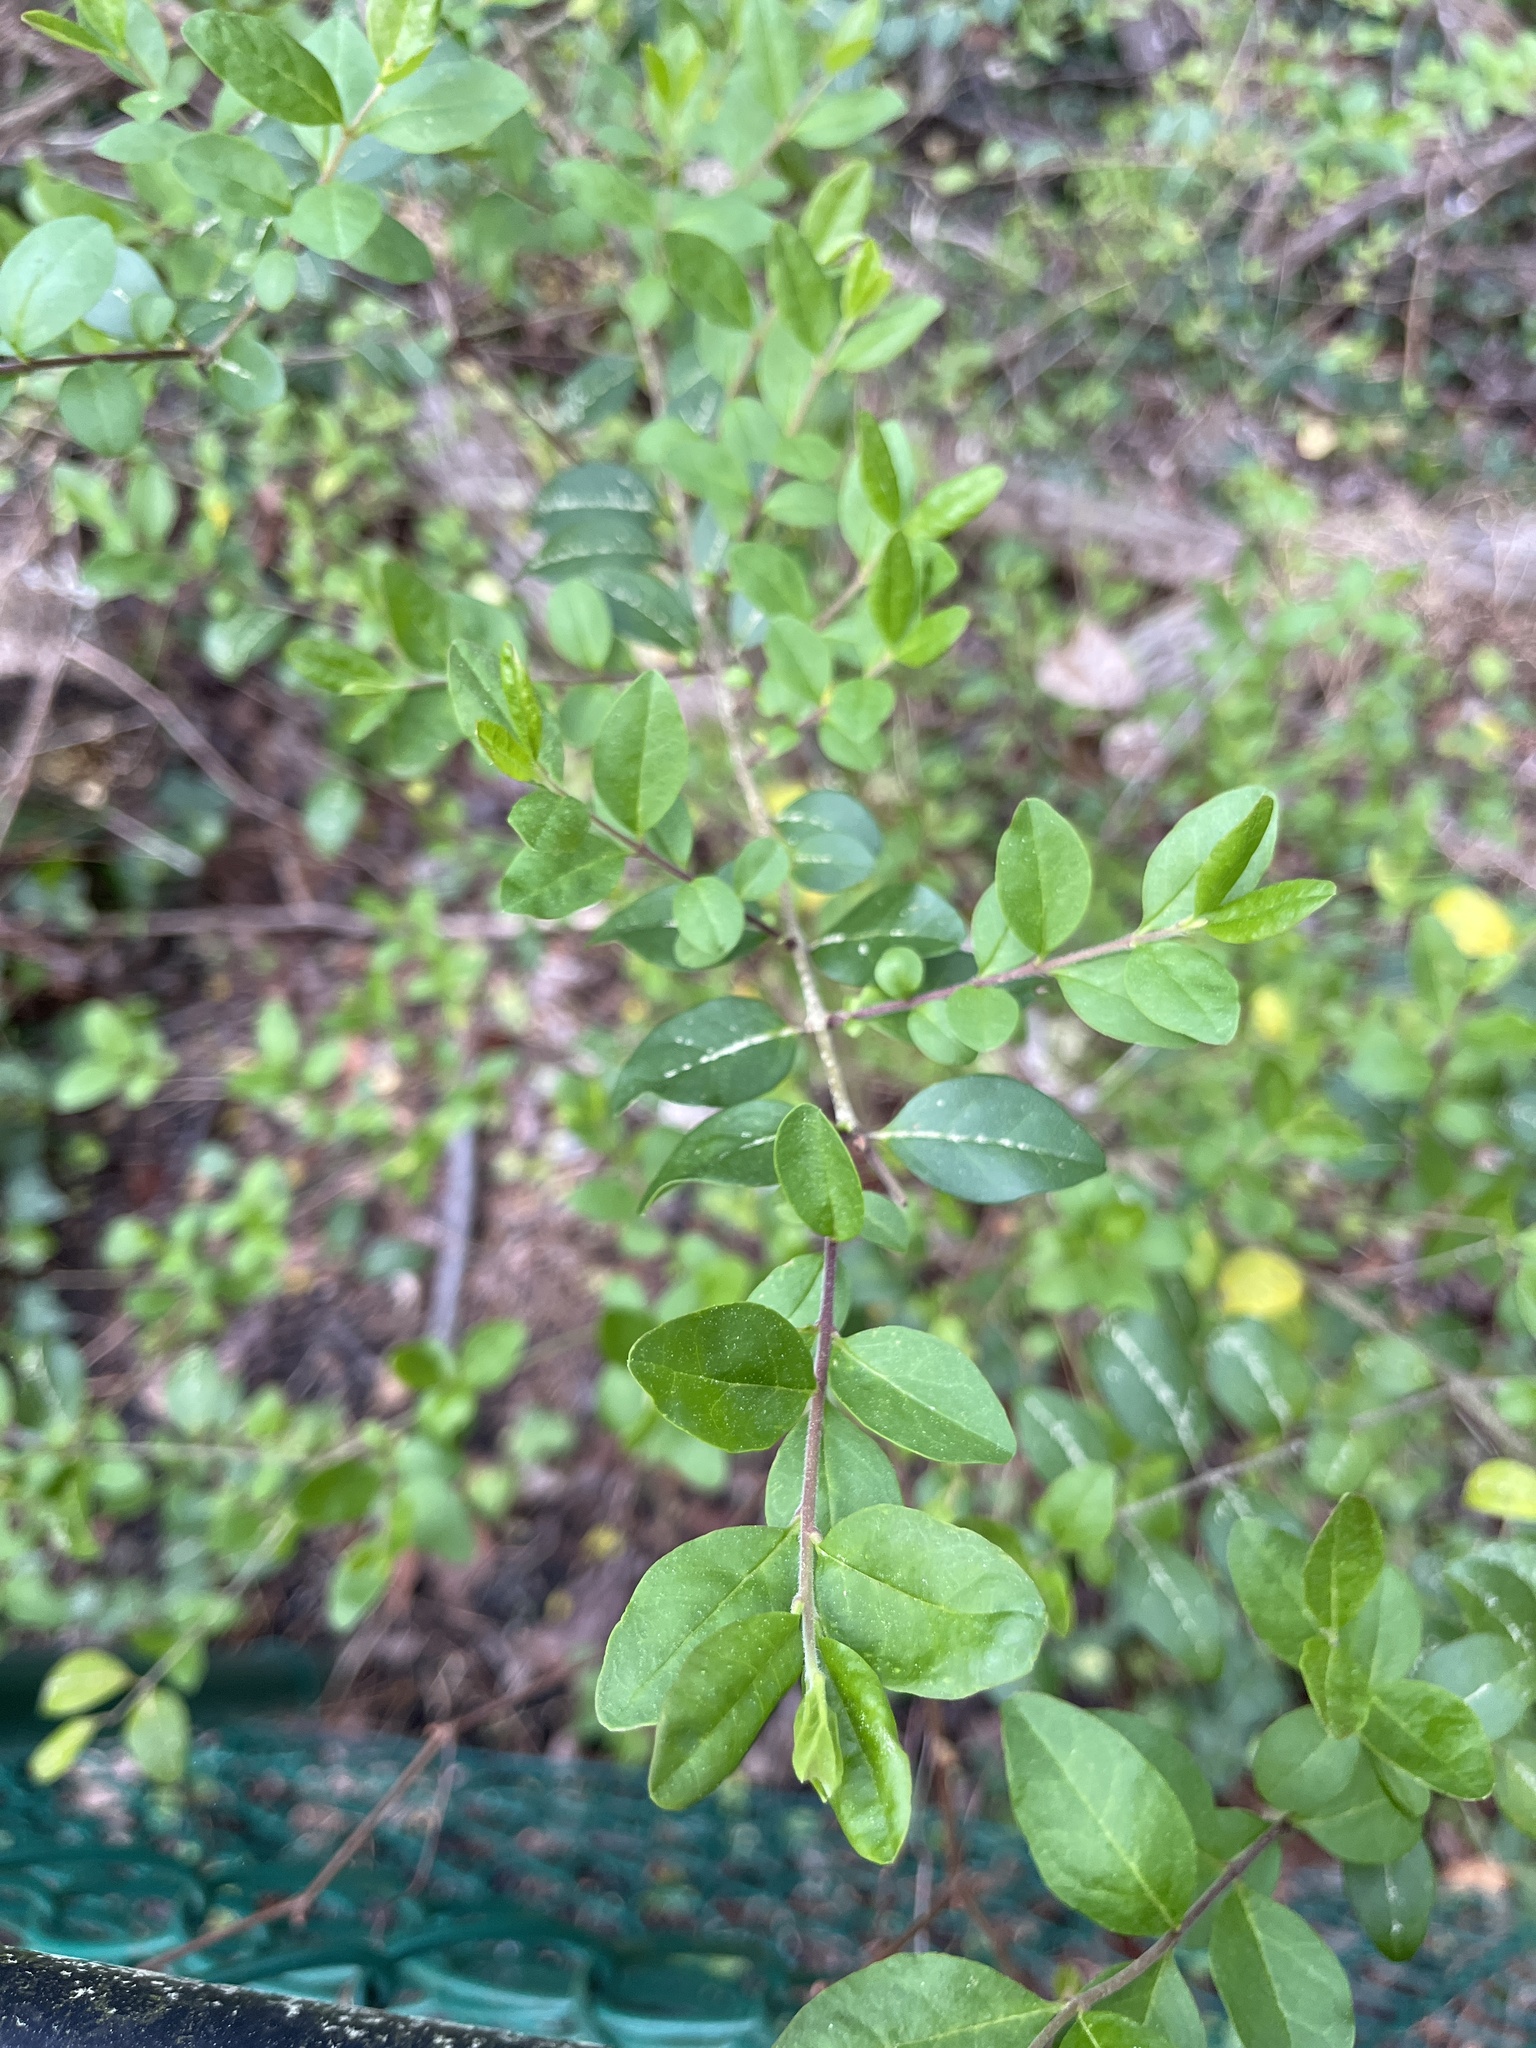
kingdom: Plantae
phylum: Tracheophyta
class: Magnoliopsida
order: Lamiales
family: Oleaceae
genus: Ligustrum
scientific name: Ligustrum sinense
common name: Chinese privet
